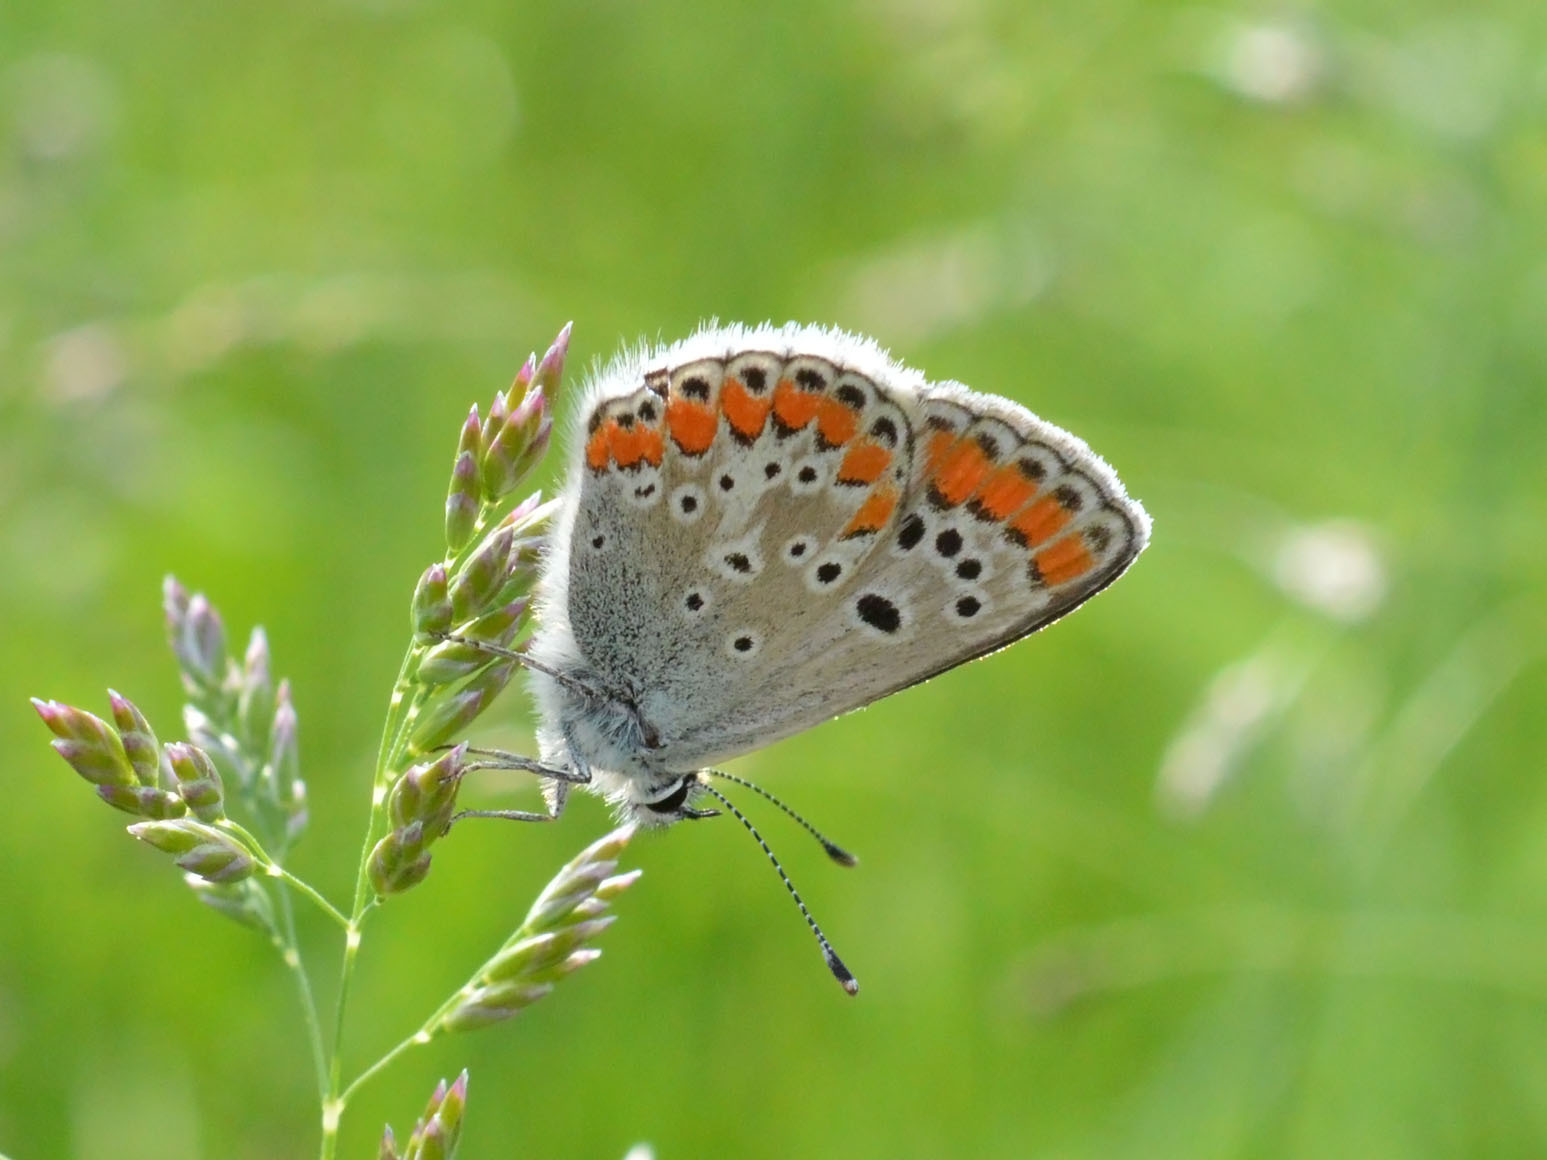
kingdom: Animalia
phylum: Arthropoda
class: Insecta
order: Lepidoptera
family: Lycaenidae
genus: Aricia
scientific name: Aricia agestis
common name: Brown argus
